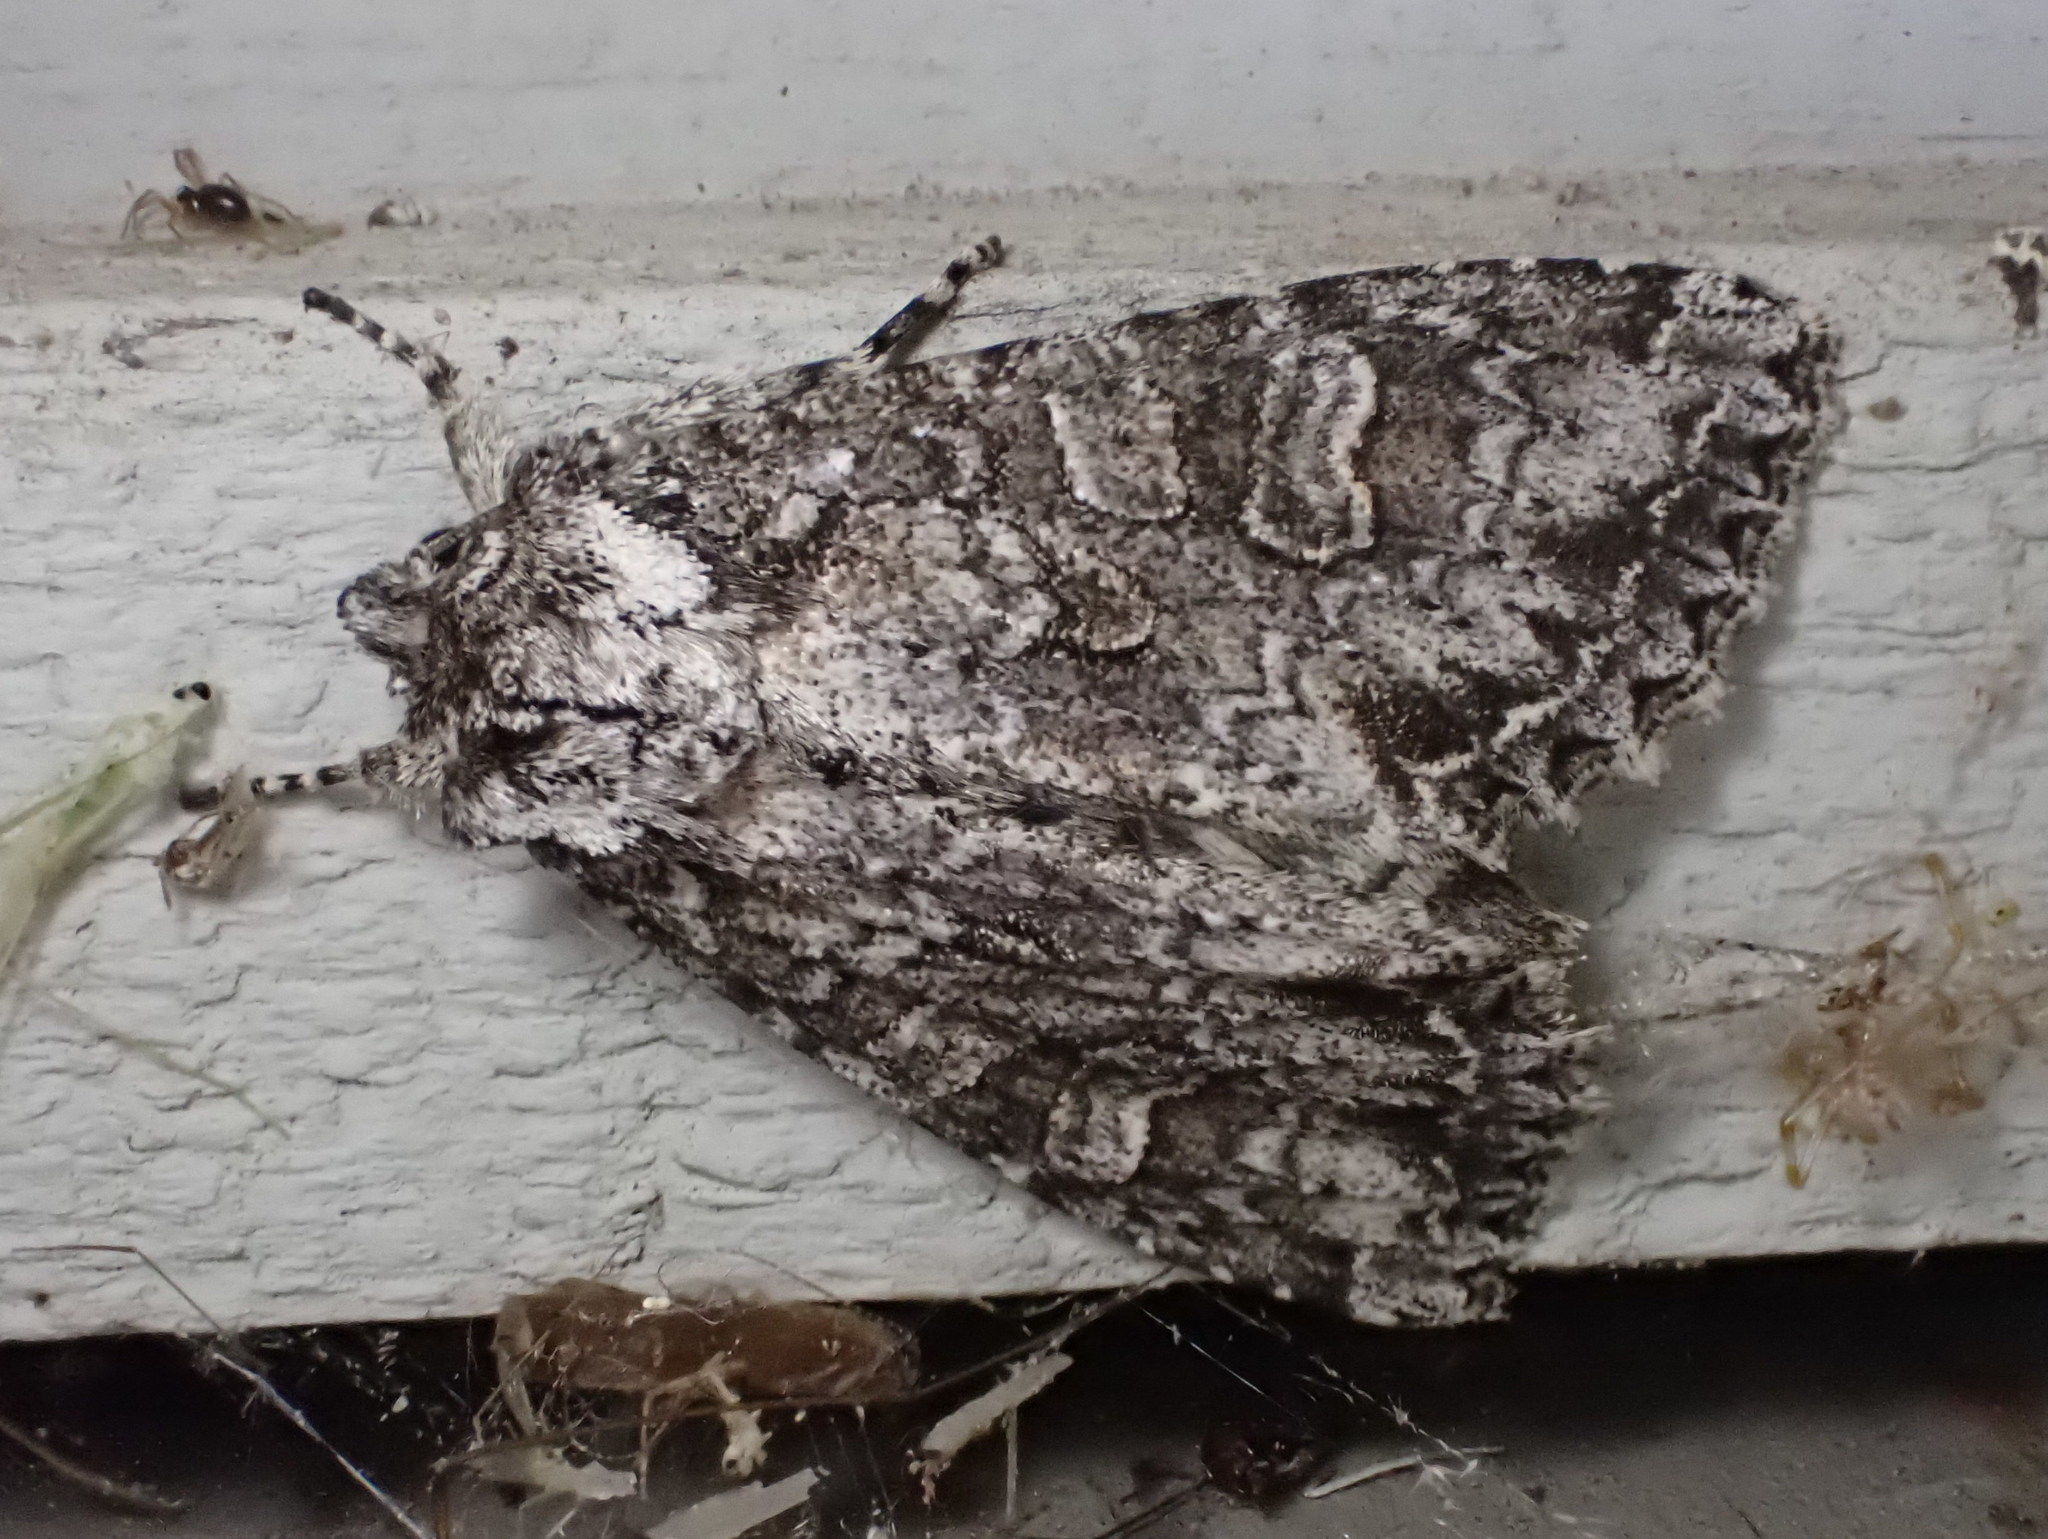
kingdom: Animalia
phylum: Arthropoda
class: Insecta
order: Lepidoptera
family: Noctuidae
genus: Polia
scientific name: Polia imbrifera
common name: Cloudy arches moth
